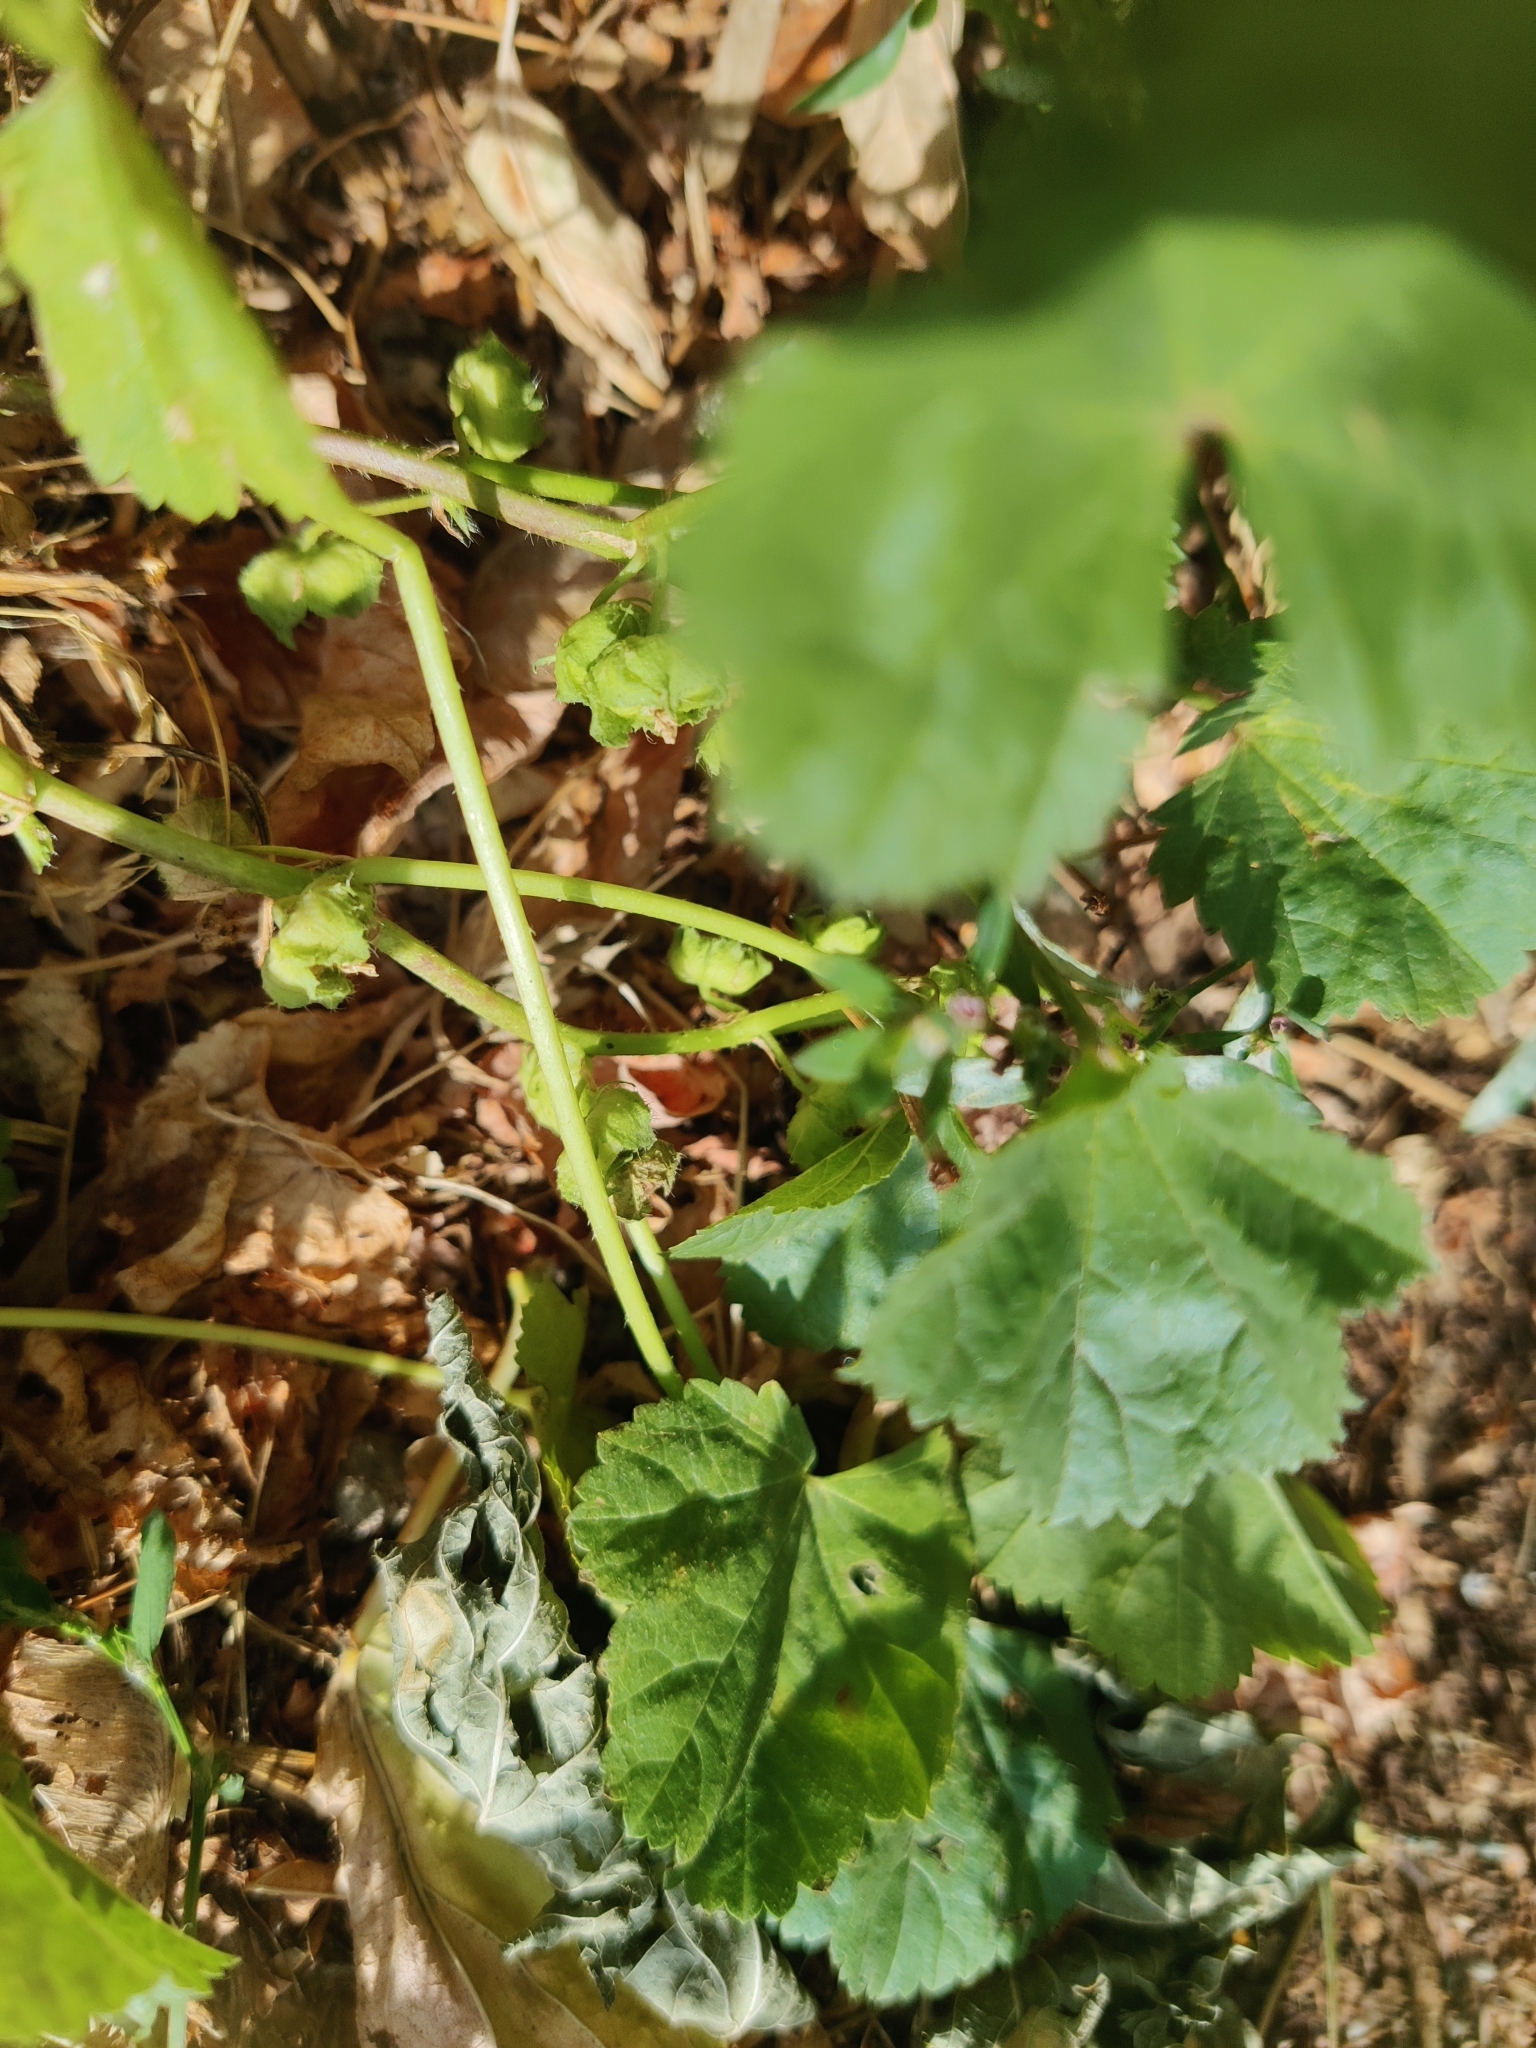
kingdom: Plantae
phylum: Tracheophyta
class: Magnoliopsida
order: Malvales
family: Malvaceae
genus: Malva
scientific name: Malva pusilla
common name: Small mallow
